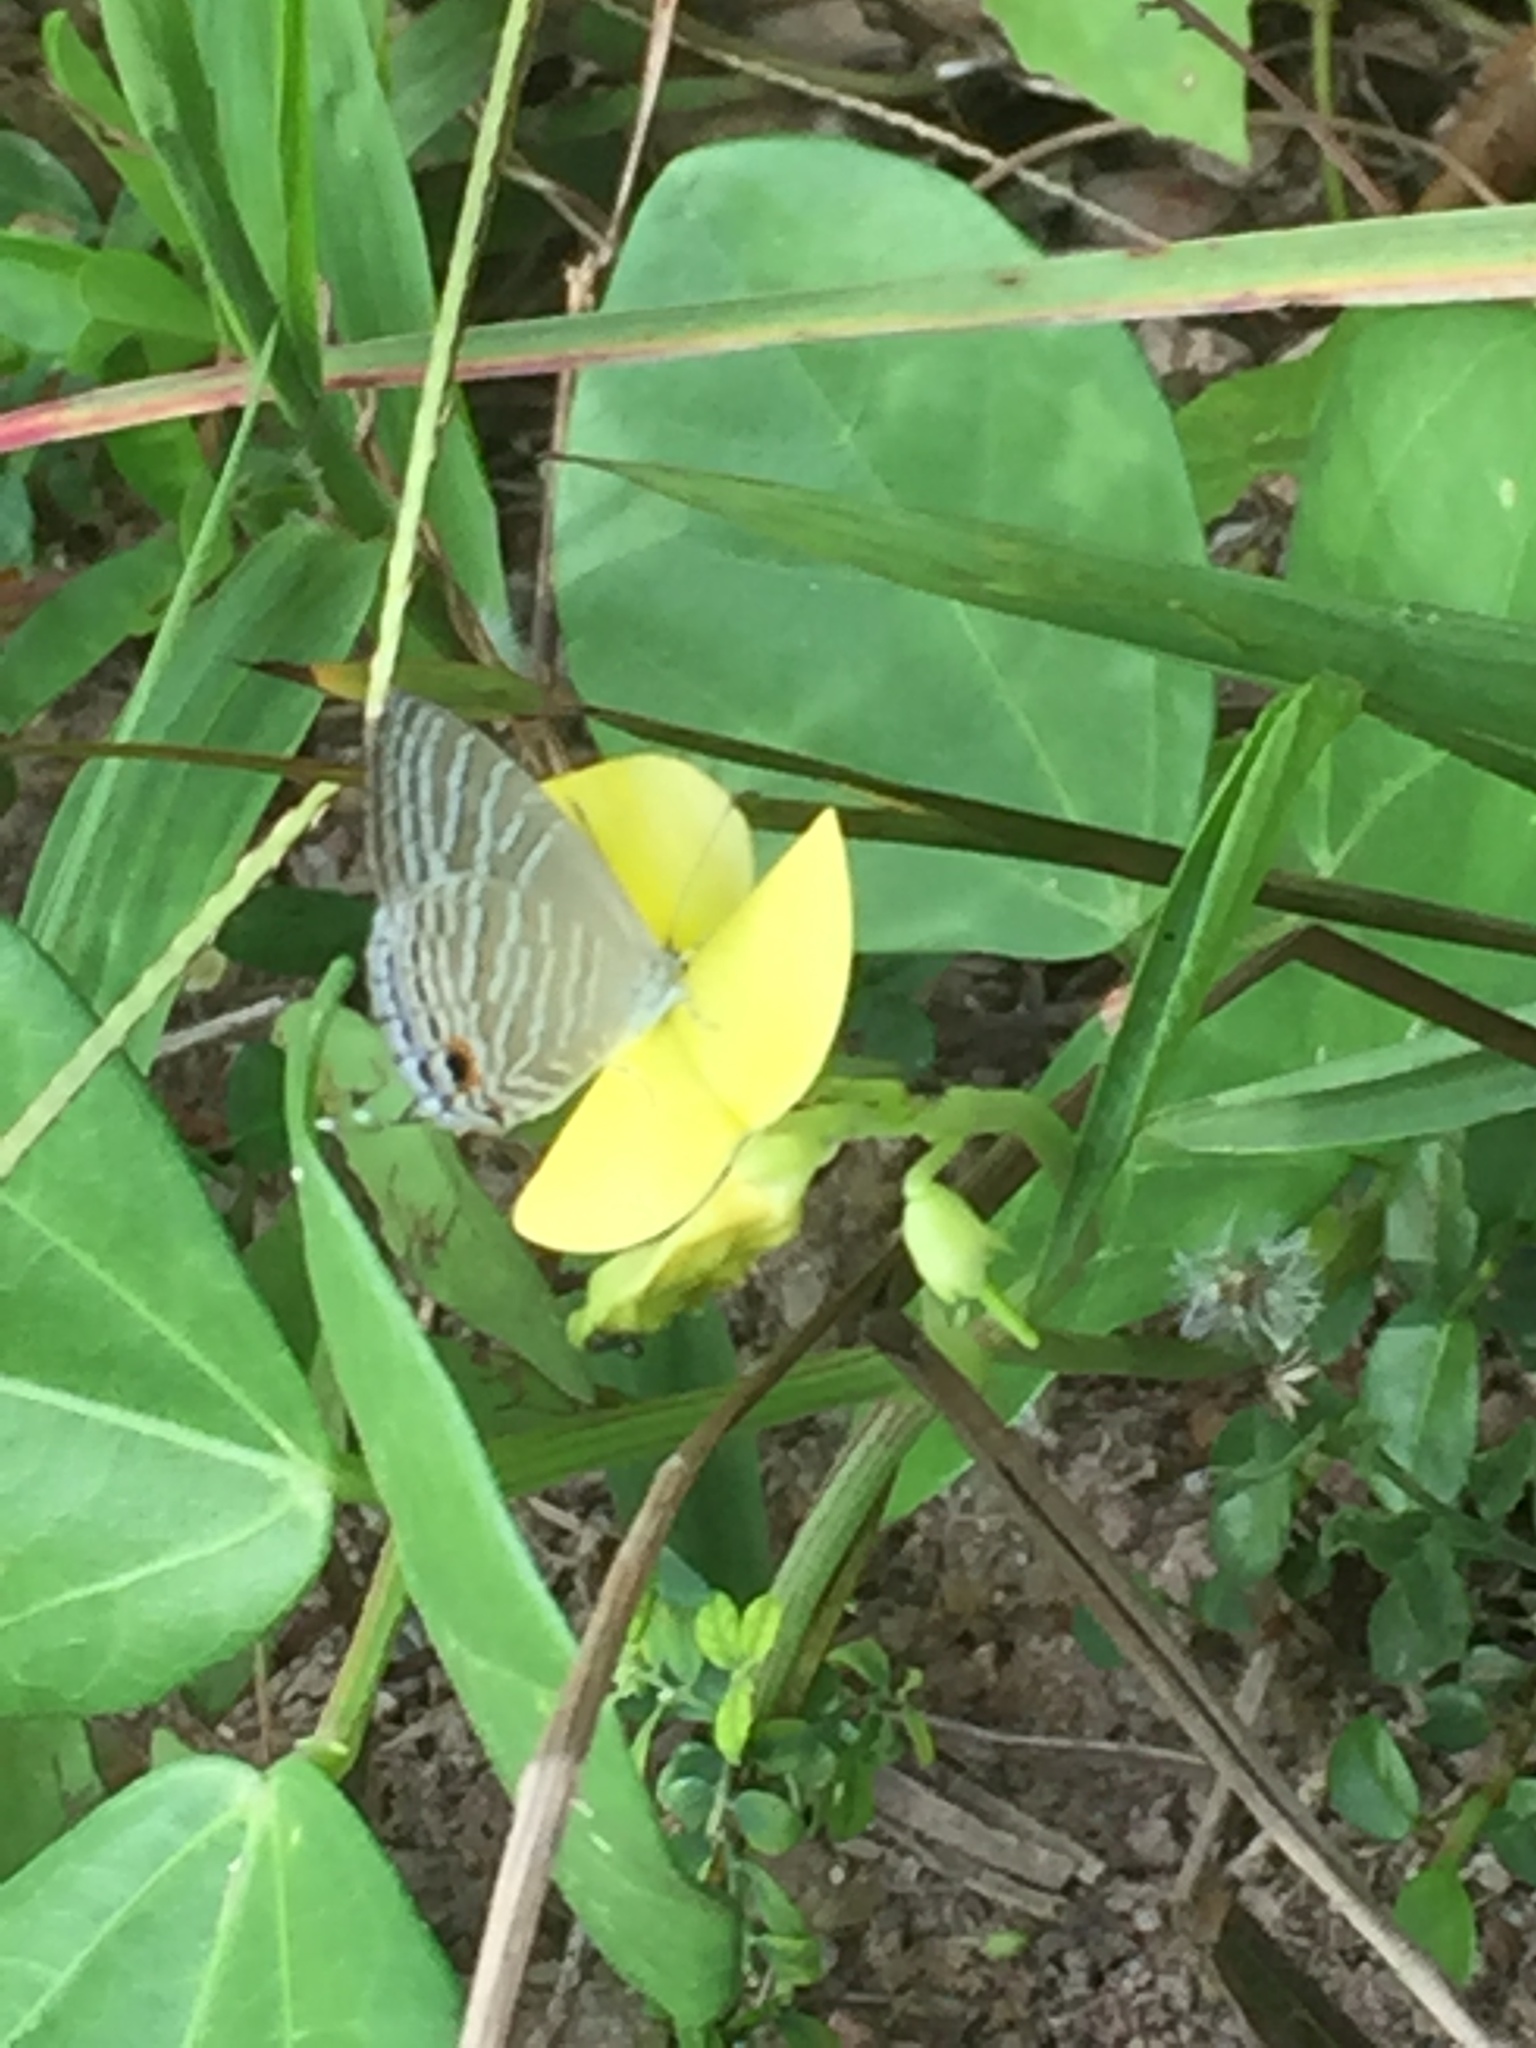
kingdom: Animalia
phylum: Arthropoda
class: Insecta
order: Lepidoptera
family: Lycaenidae
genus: Jamides
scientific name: Jamides celeno
